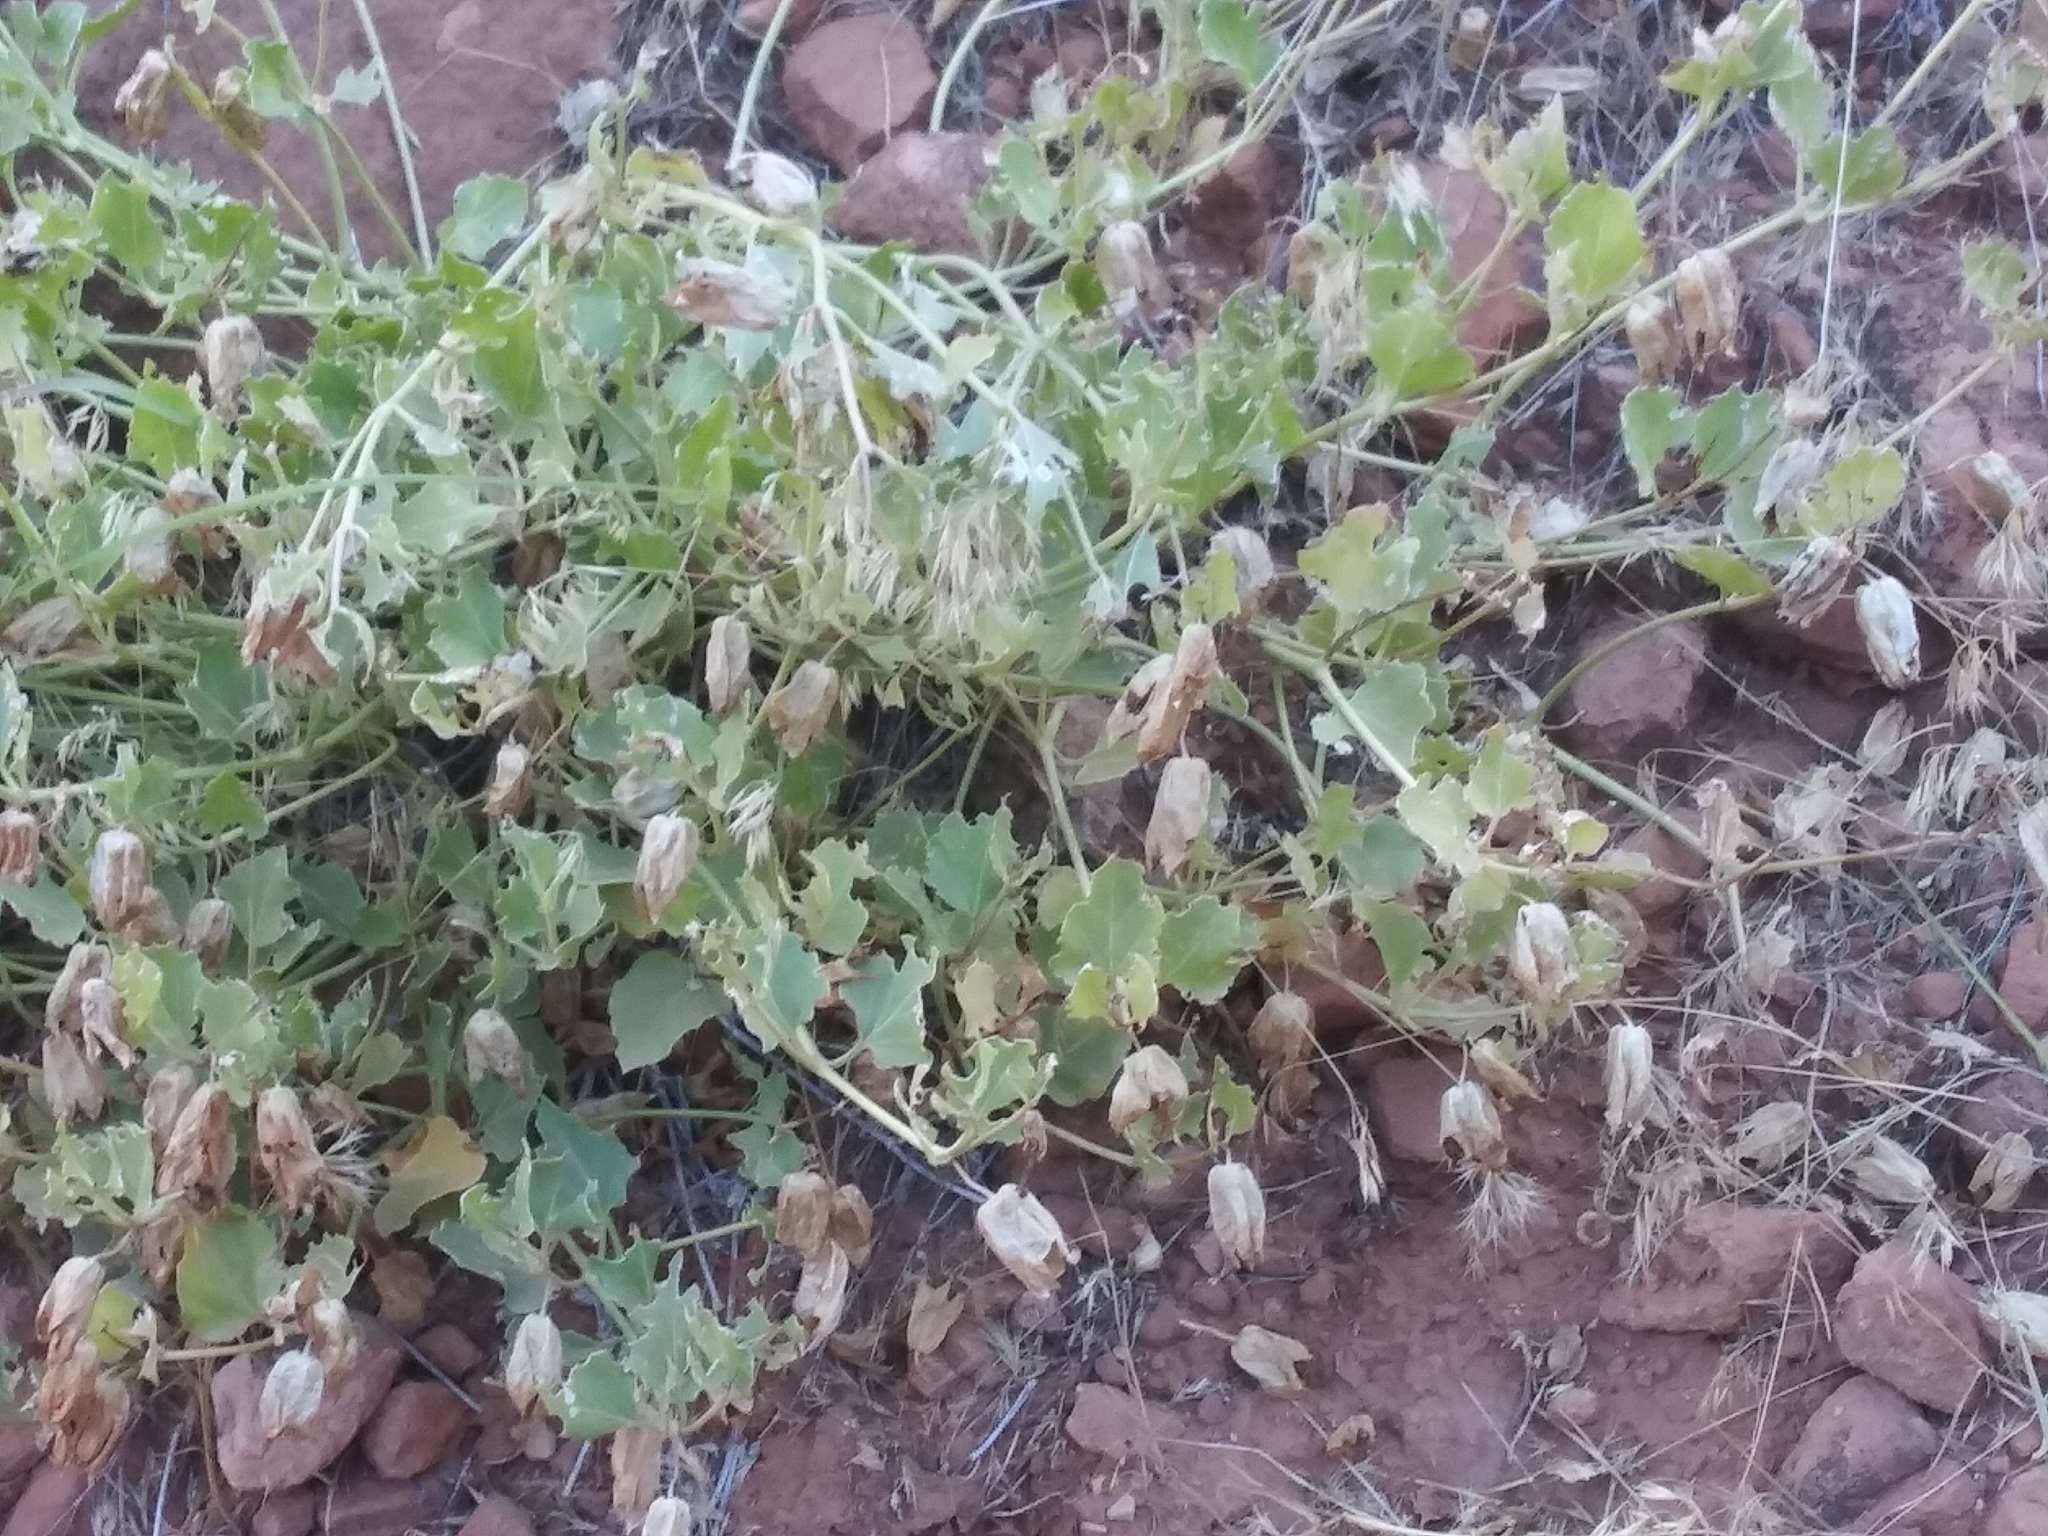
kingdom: Plantae
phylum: Tracheophyta
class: Magnoliopsida
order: Caryophyllales
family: Nyctaginaceae
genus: Mirabilis
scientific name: Mirabilis multiflora
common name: Froebel's four-o'clock
